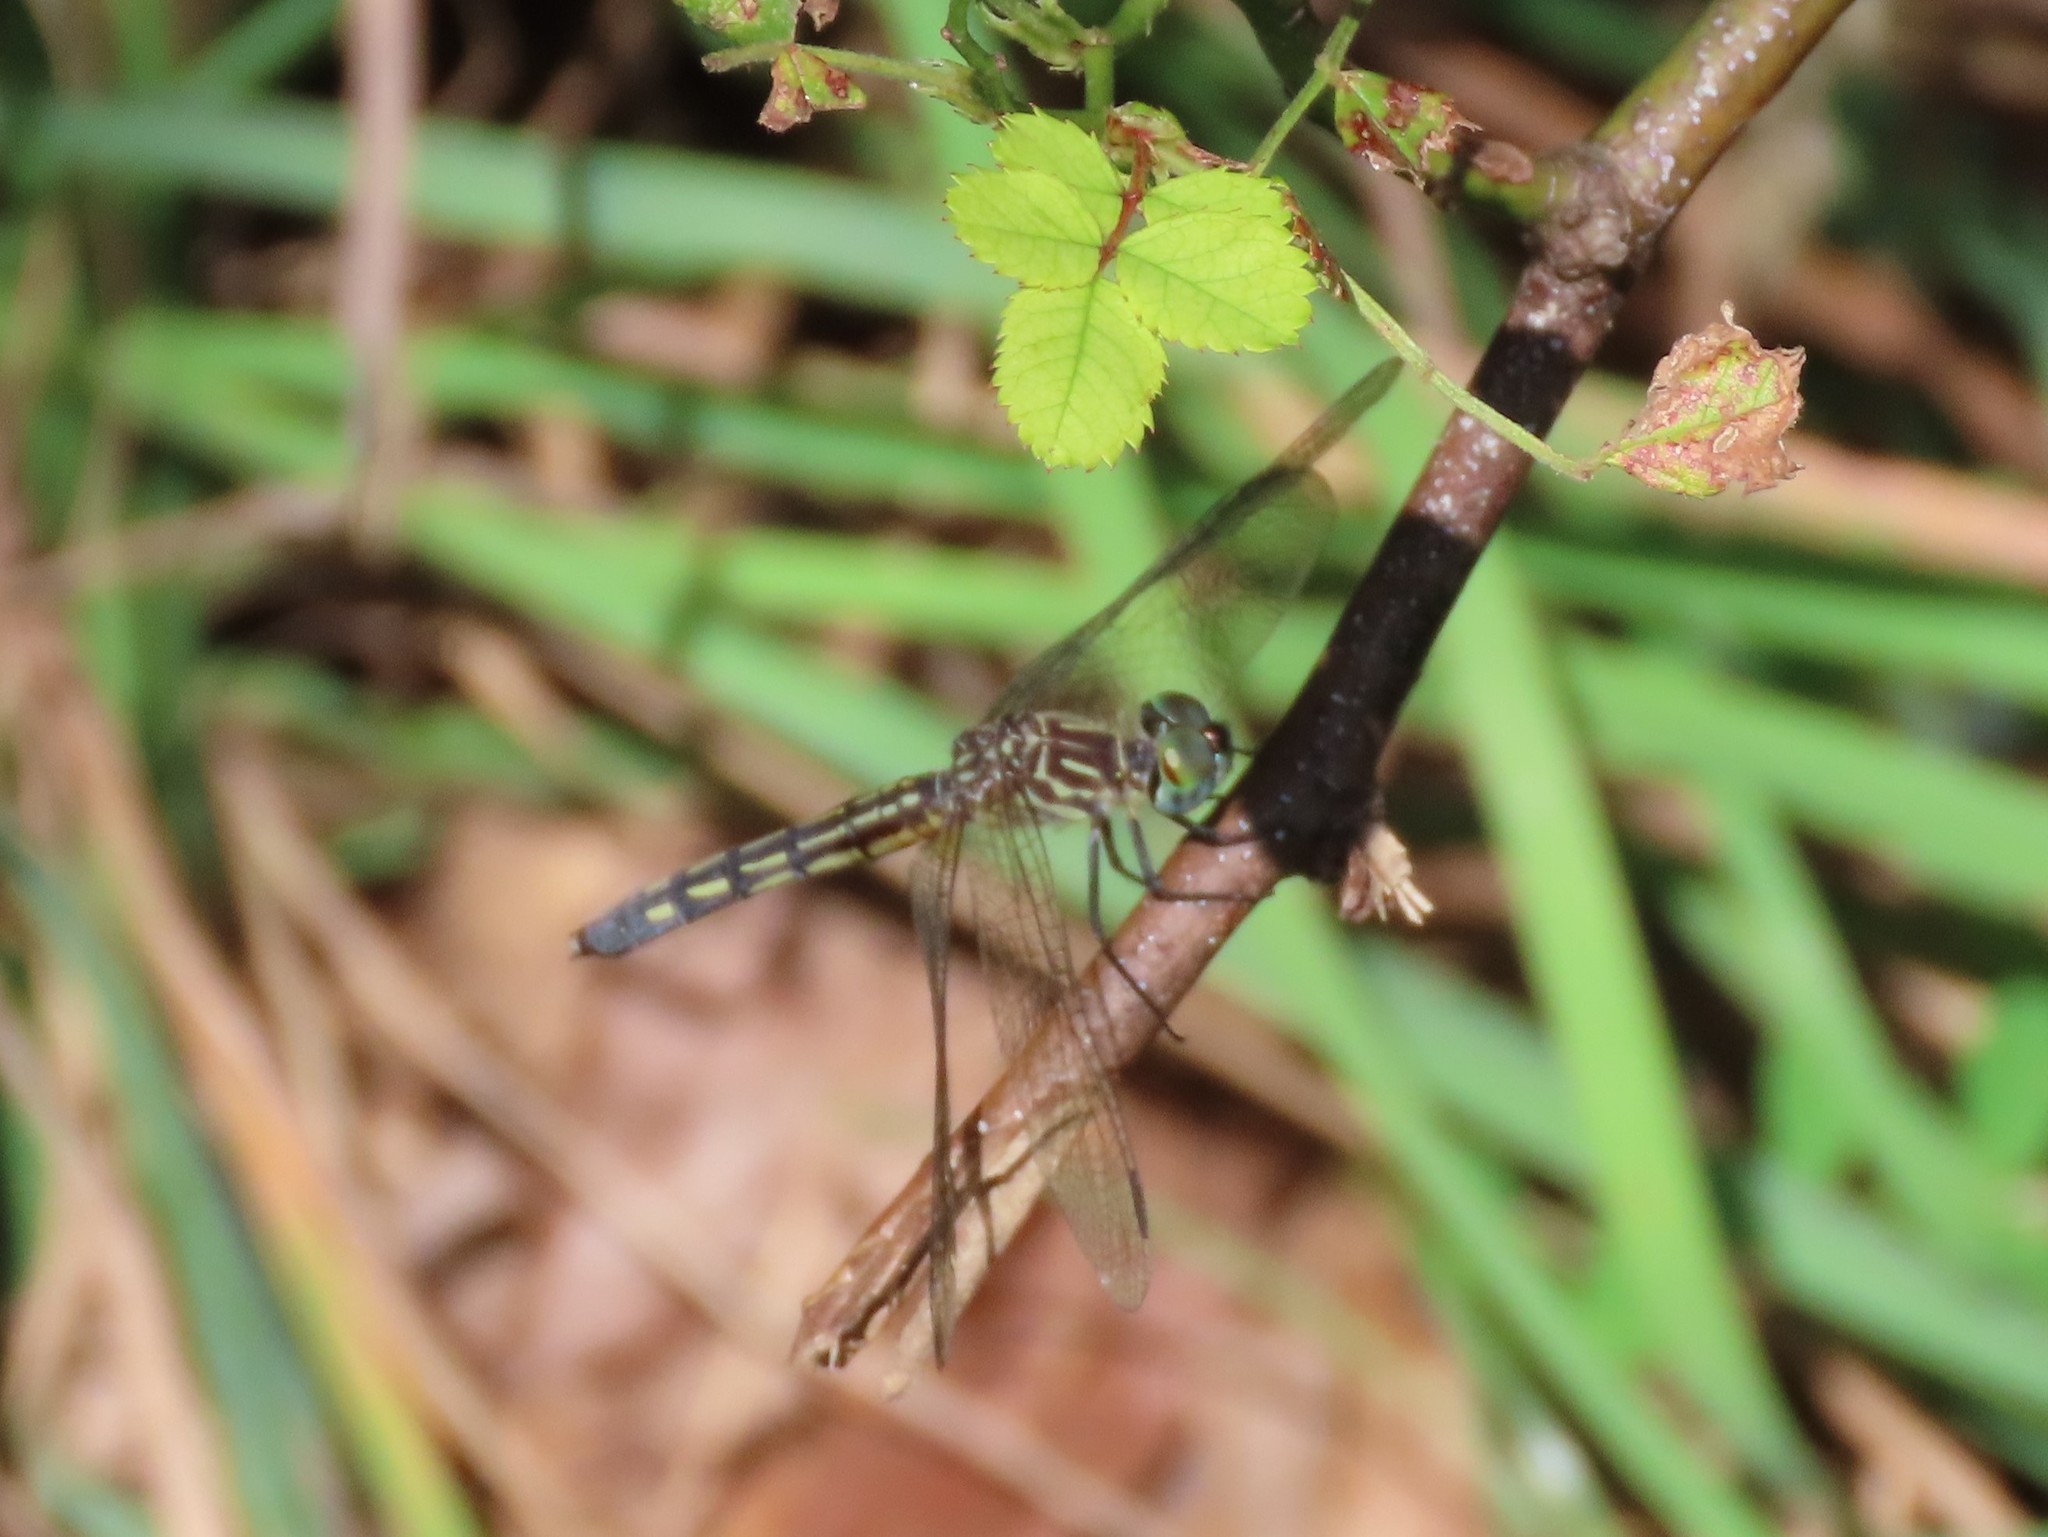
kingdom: Animalia
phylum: Arthropoda
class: Insecta
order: Odonata
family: Libellulidae
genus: Pachydiplax
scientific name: Pachydiplax longipennis
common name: Blue dasher
